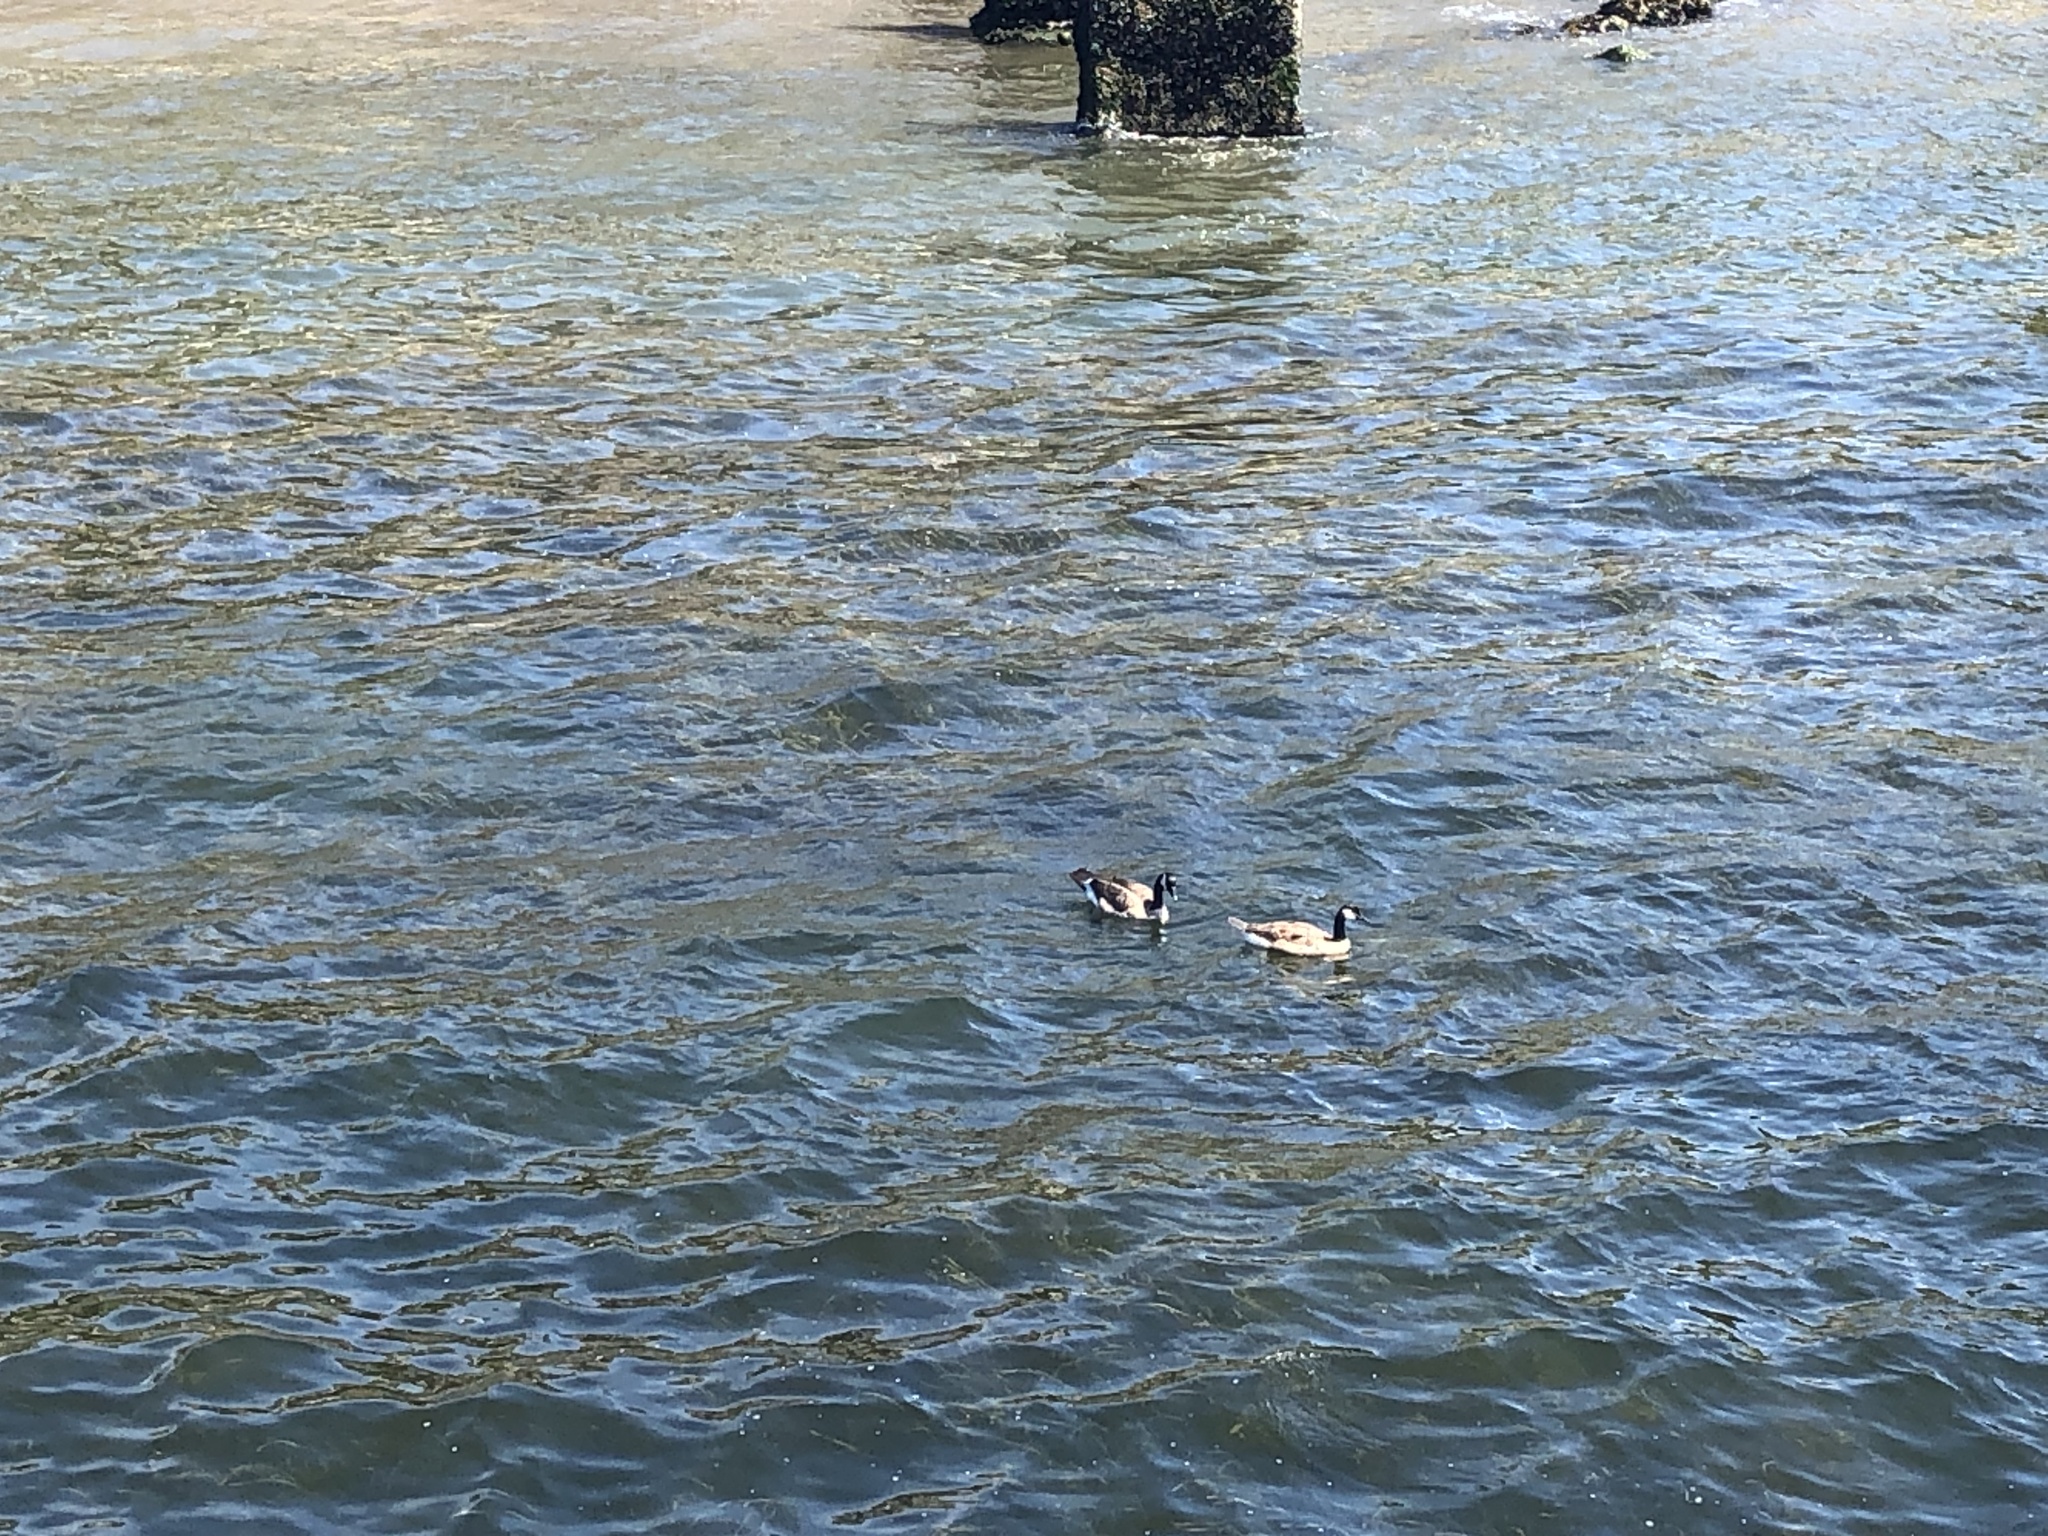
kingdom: Animalia
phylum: Chordata
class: Aves
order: Anseriformes
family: Anatidae
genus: Branta
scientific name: Branta canadensis
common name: Canada goose
